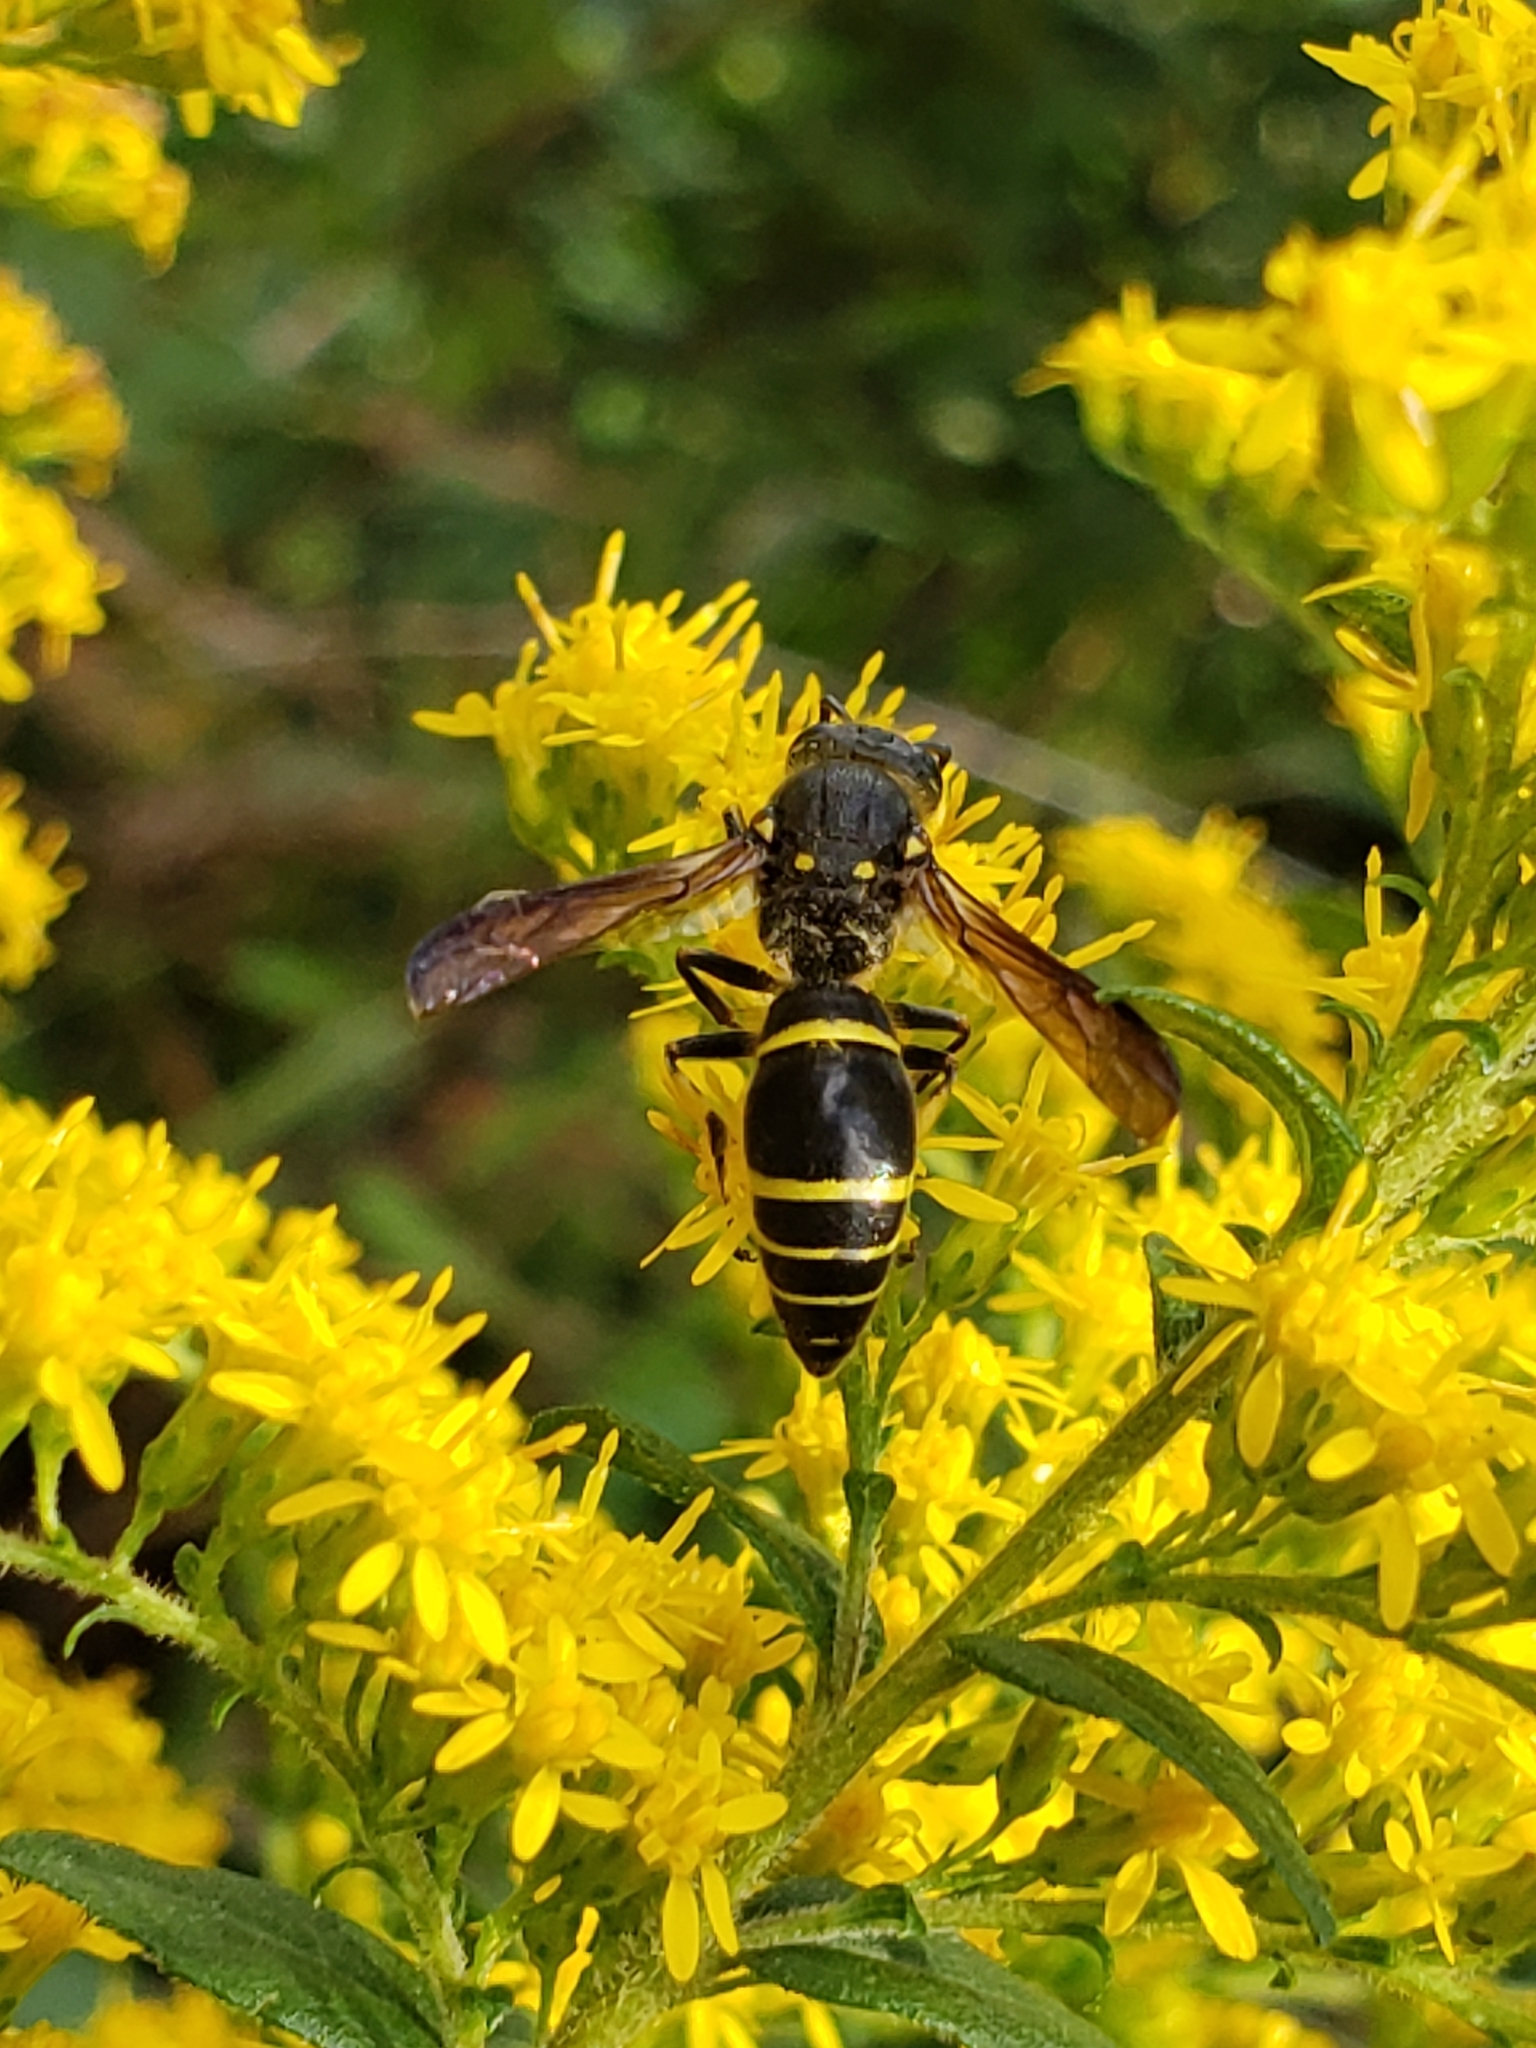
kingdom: Animalia
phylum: Arthropoda
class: Insecta
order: Hymenoptera
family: Vespidae
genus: Ancistrocerus
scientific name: Ancistrocerus
